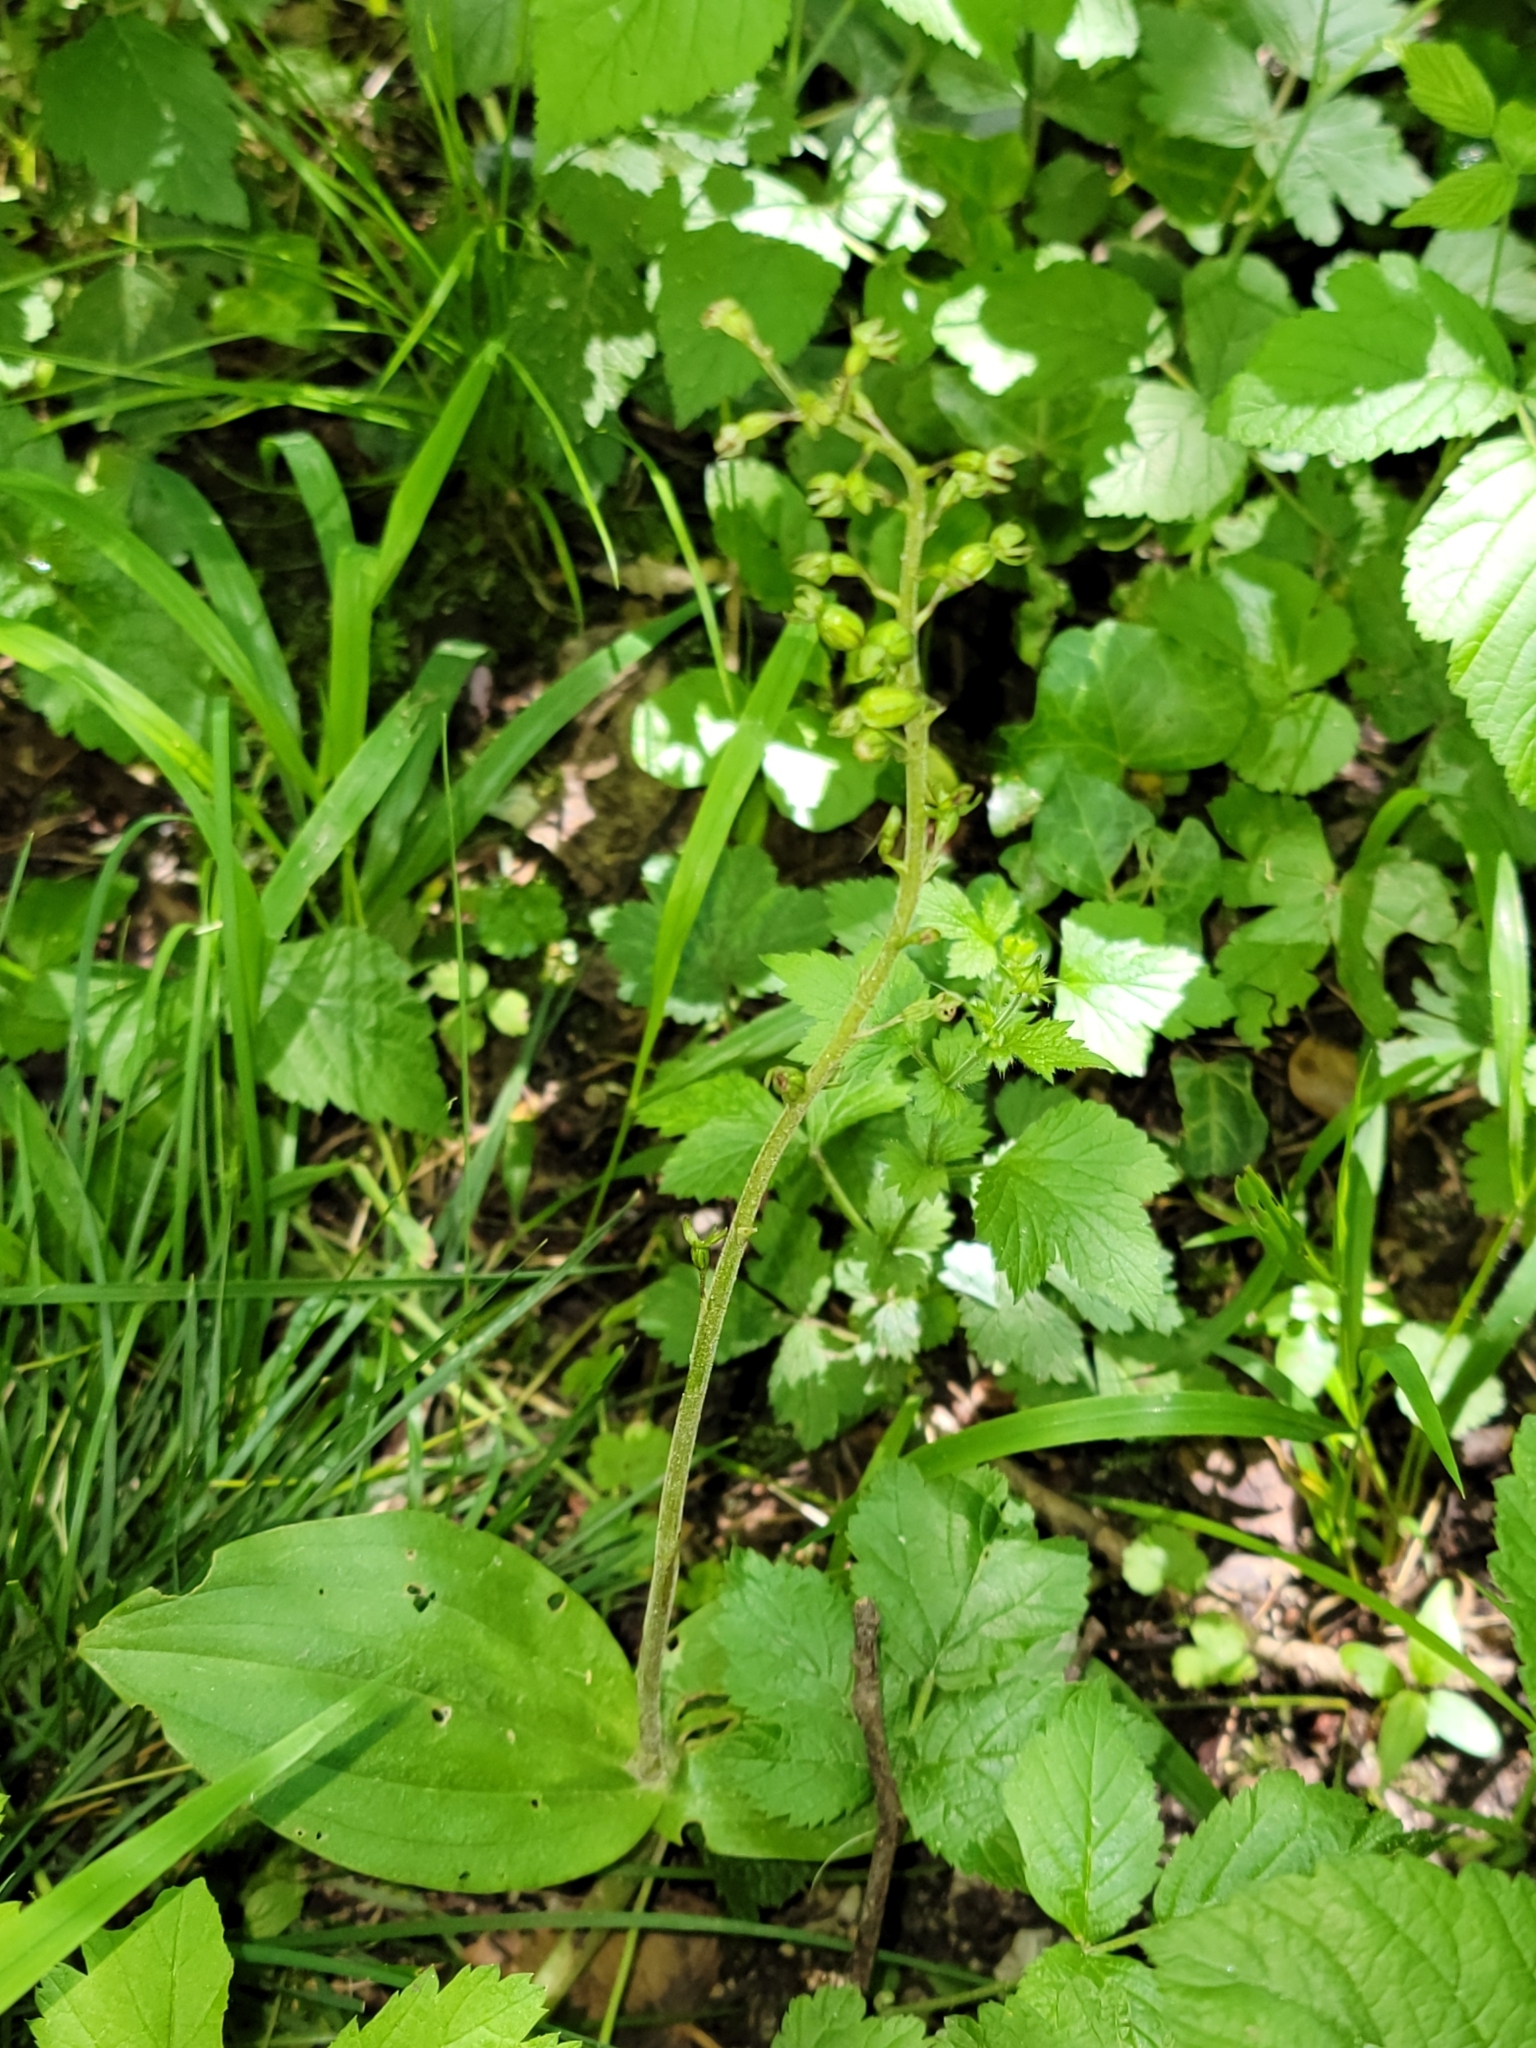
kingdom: Plantae
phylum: Tracheophyta
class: Liliopsida
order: Asparagales
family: Orchidaceae
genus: Neottia
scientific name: Neottia ovata
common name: Common twayblade
